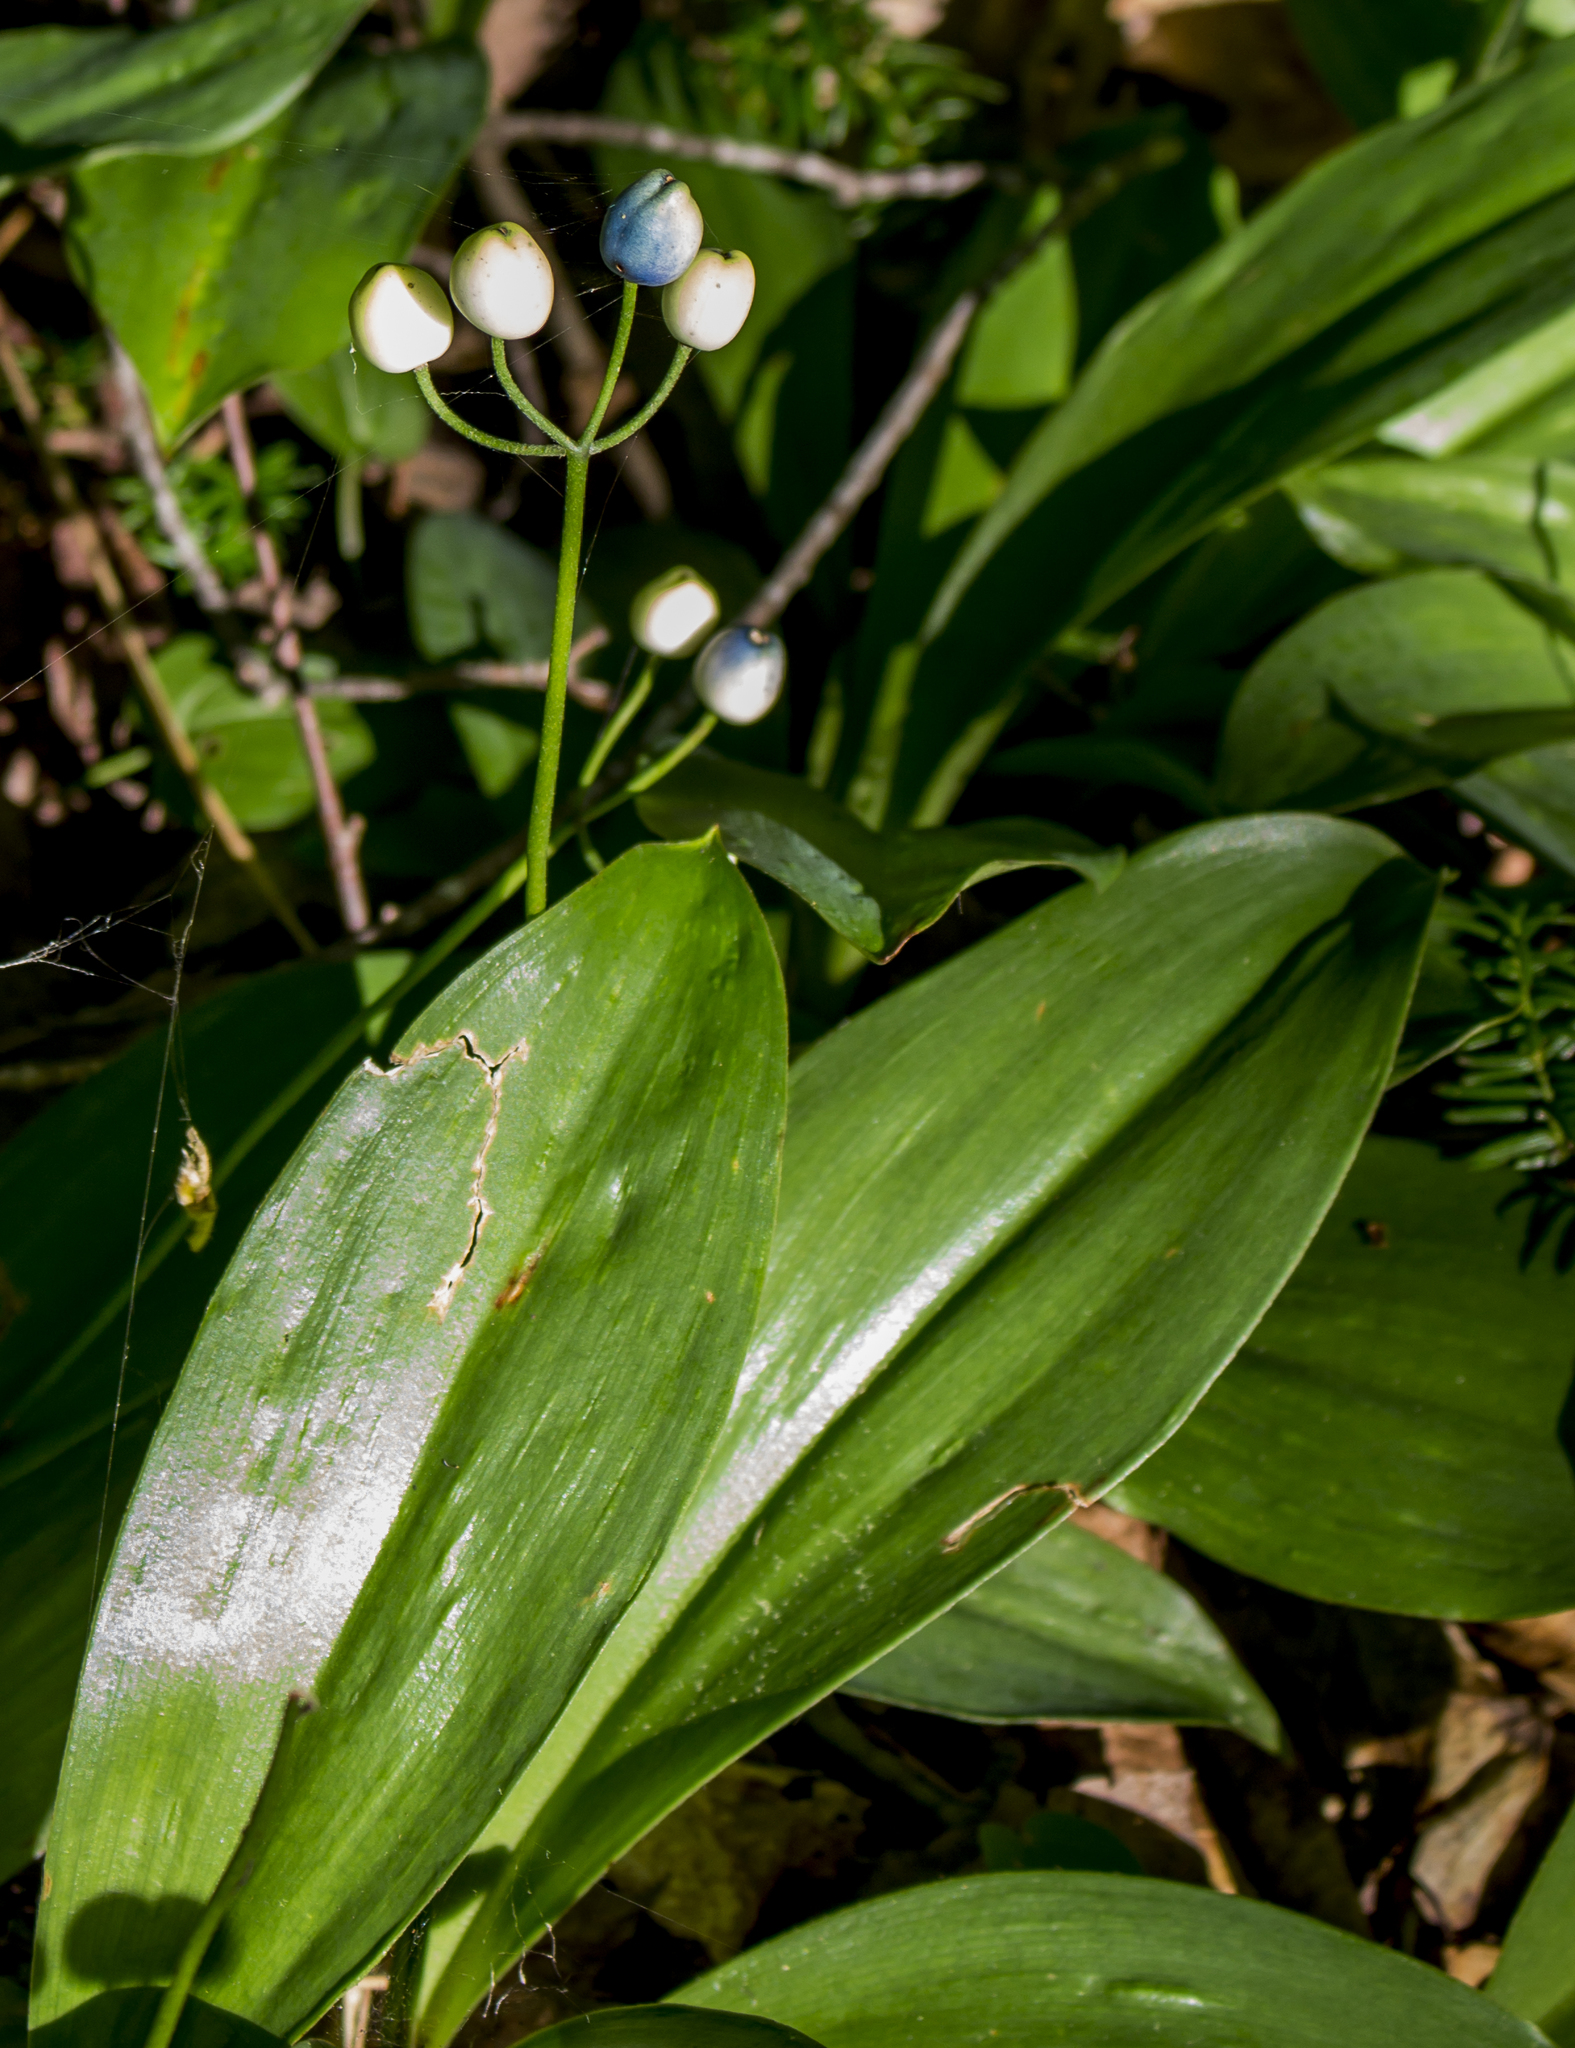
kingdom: Plantae
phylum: Tracheophyta
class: Liliopsida
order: Liliales
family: Liliaceae
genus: Clintonia
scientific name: Clintonia borealis
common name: Yellow clintonia
